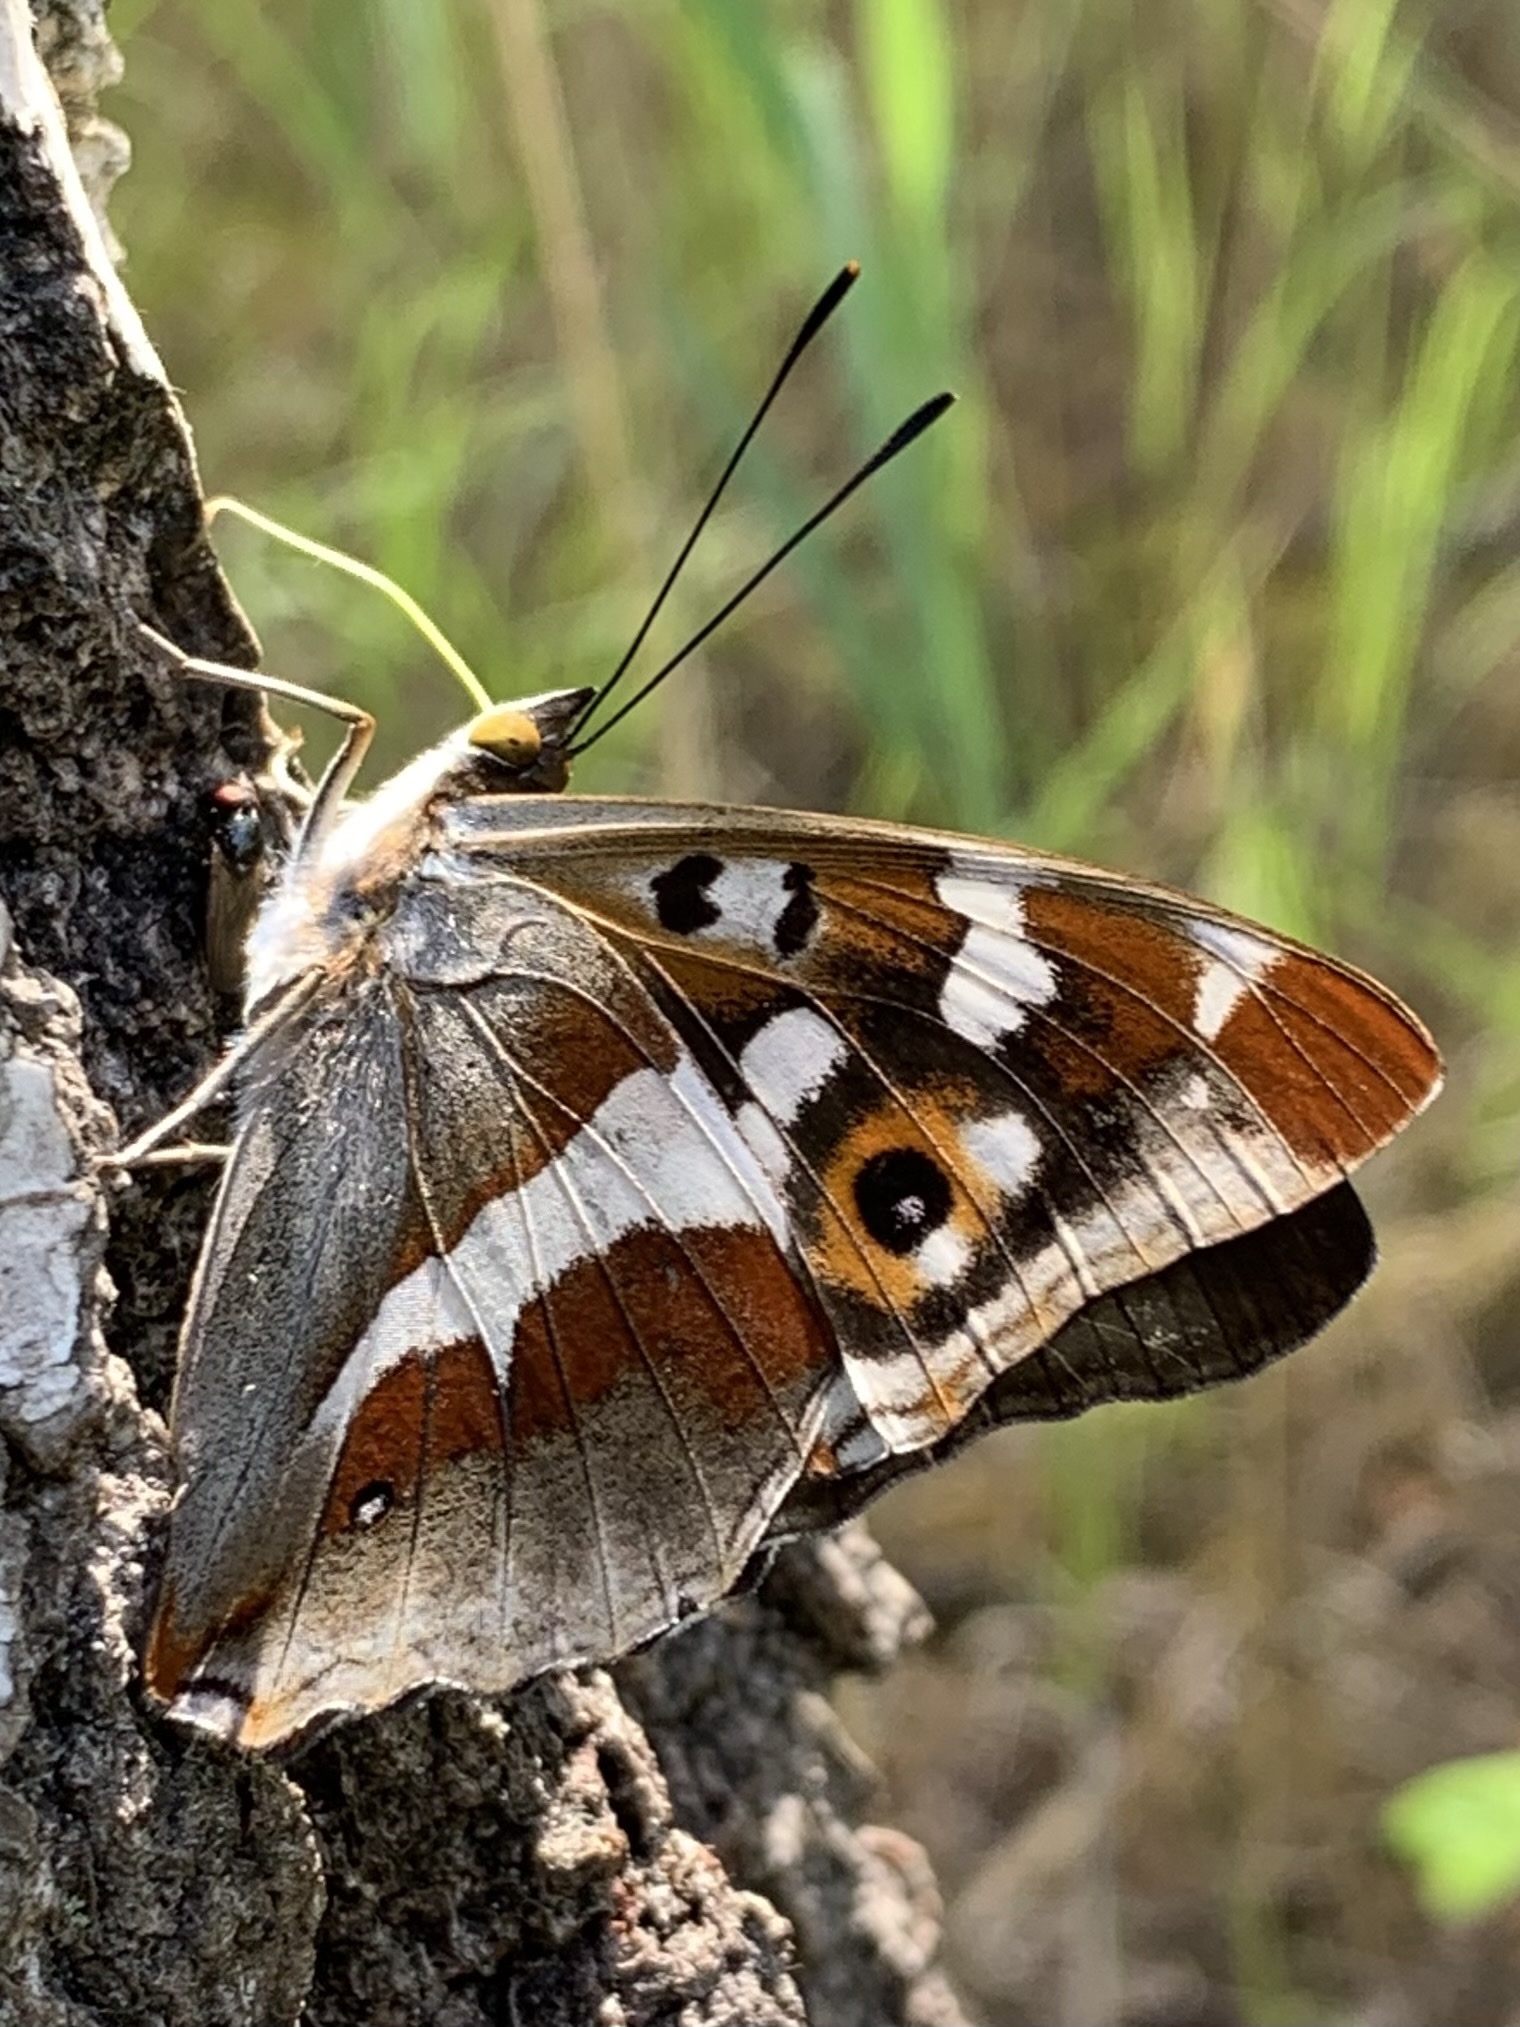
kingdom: Animalia
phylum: Arthropoda
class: Insecta
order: Lepidoptera
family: Nymphalidae
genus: Apatura
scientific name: Apatura iris
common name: Purple emperor
